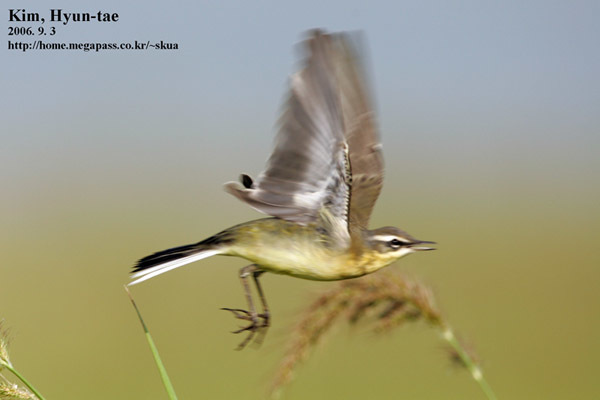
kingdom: Animalia
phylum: Chordata
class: Aves
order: Passeriformes
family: Motacillidae
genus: Motacilla
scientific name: Motacilla tschutschensis
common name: Eastern yellow wagtail
